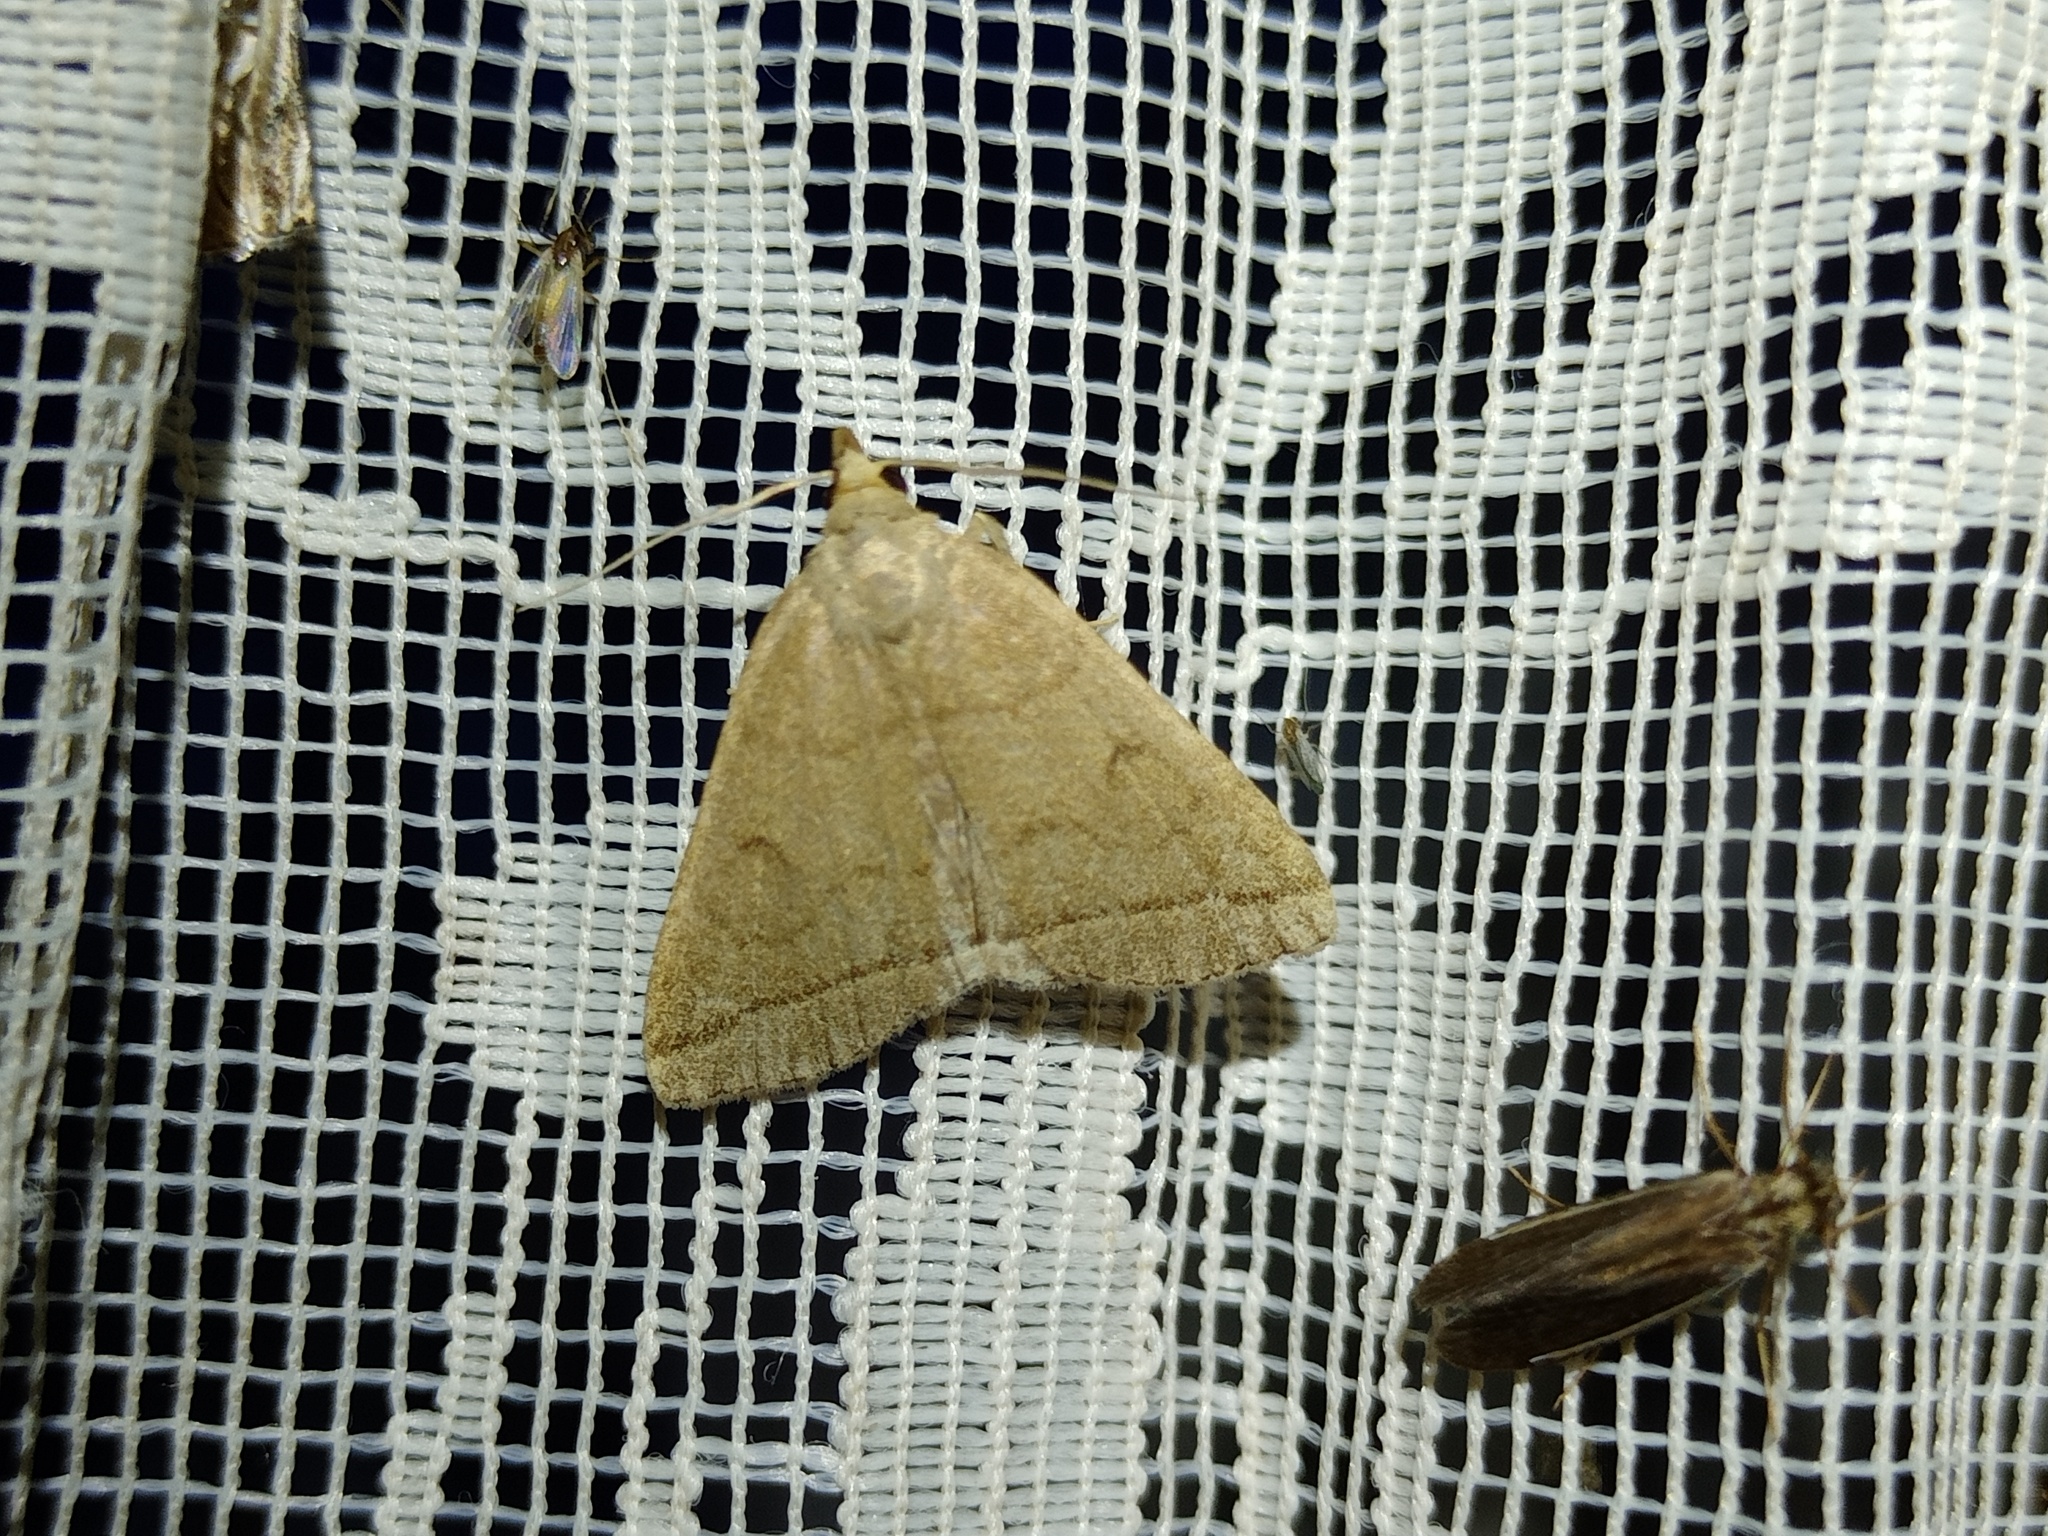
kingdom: Animalia
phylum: Arthropoda
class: Insecta
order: Lepidoptera
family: Erebidae
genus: Herminia
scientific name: Herminia tarsipennalis
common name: Fan-foot
